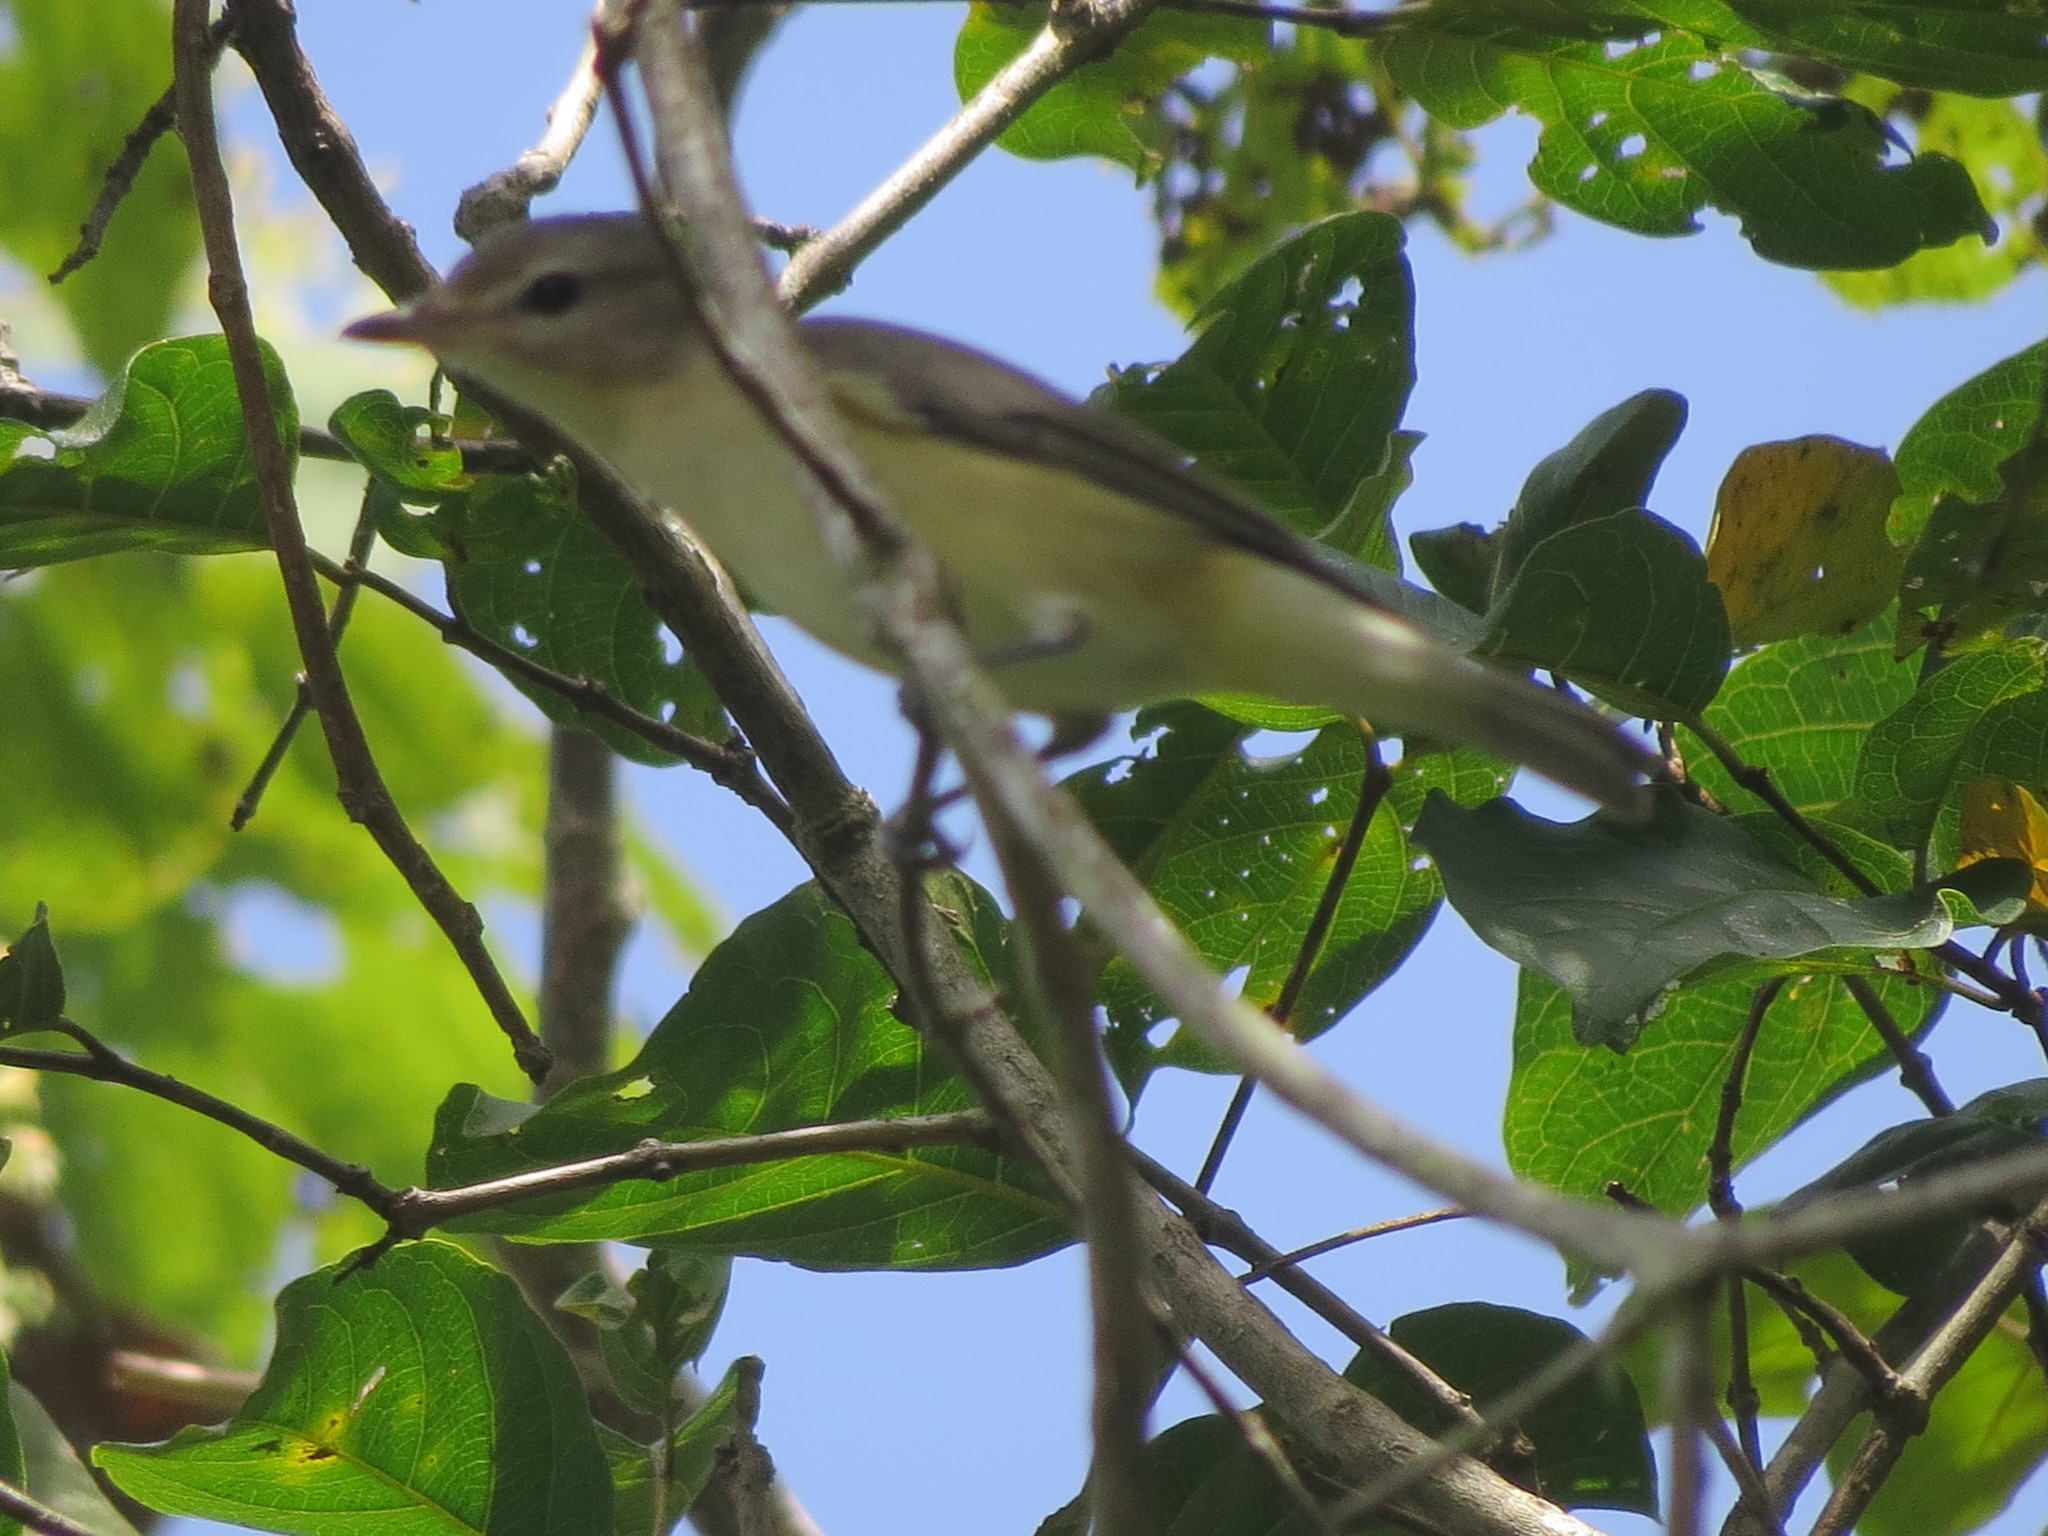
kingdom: Animalia
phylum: Chordata
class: Aves
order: Passeriformes
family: Vireonidae
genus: Vireo
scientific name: Vireo gilvus
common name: Warbling vireo
